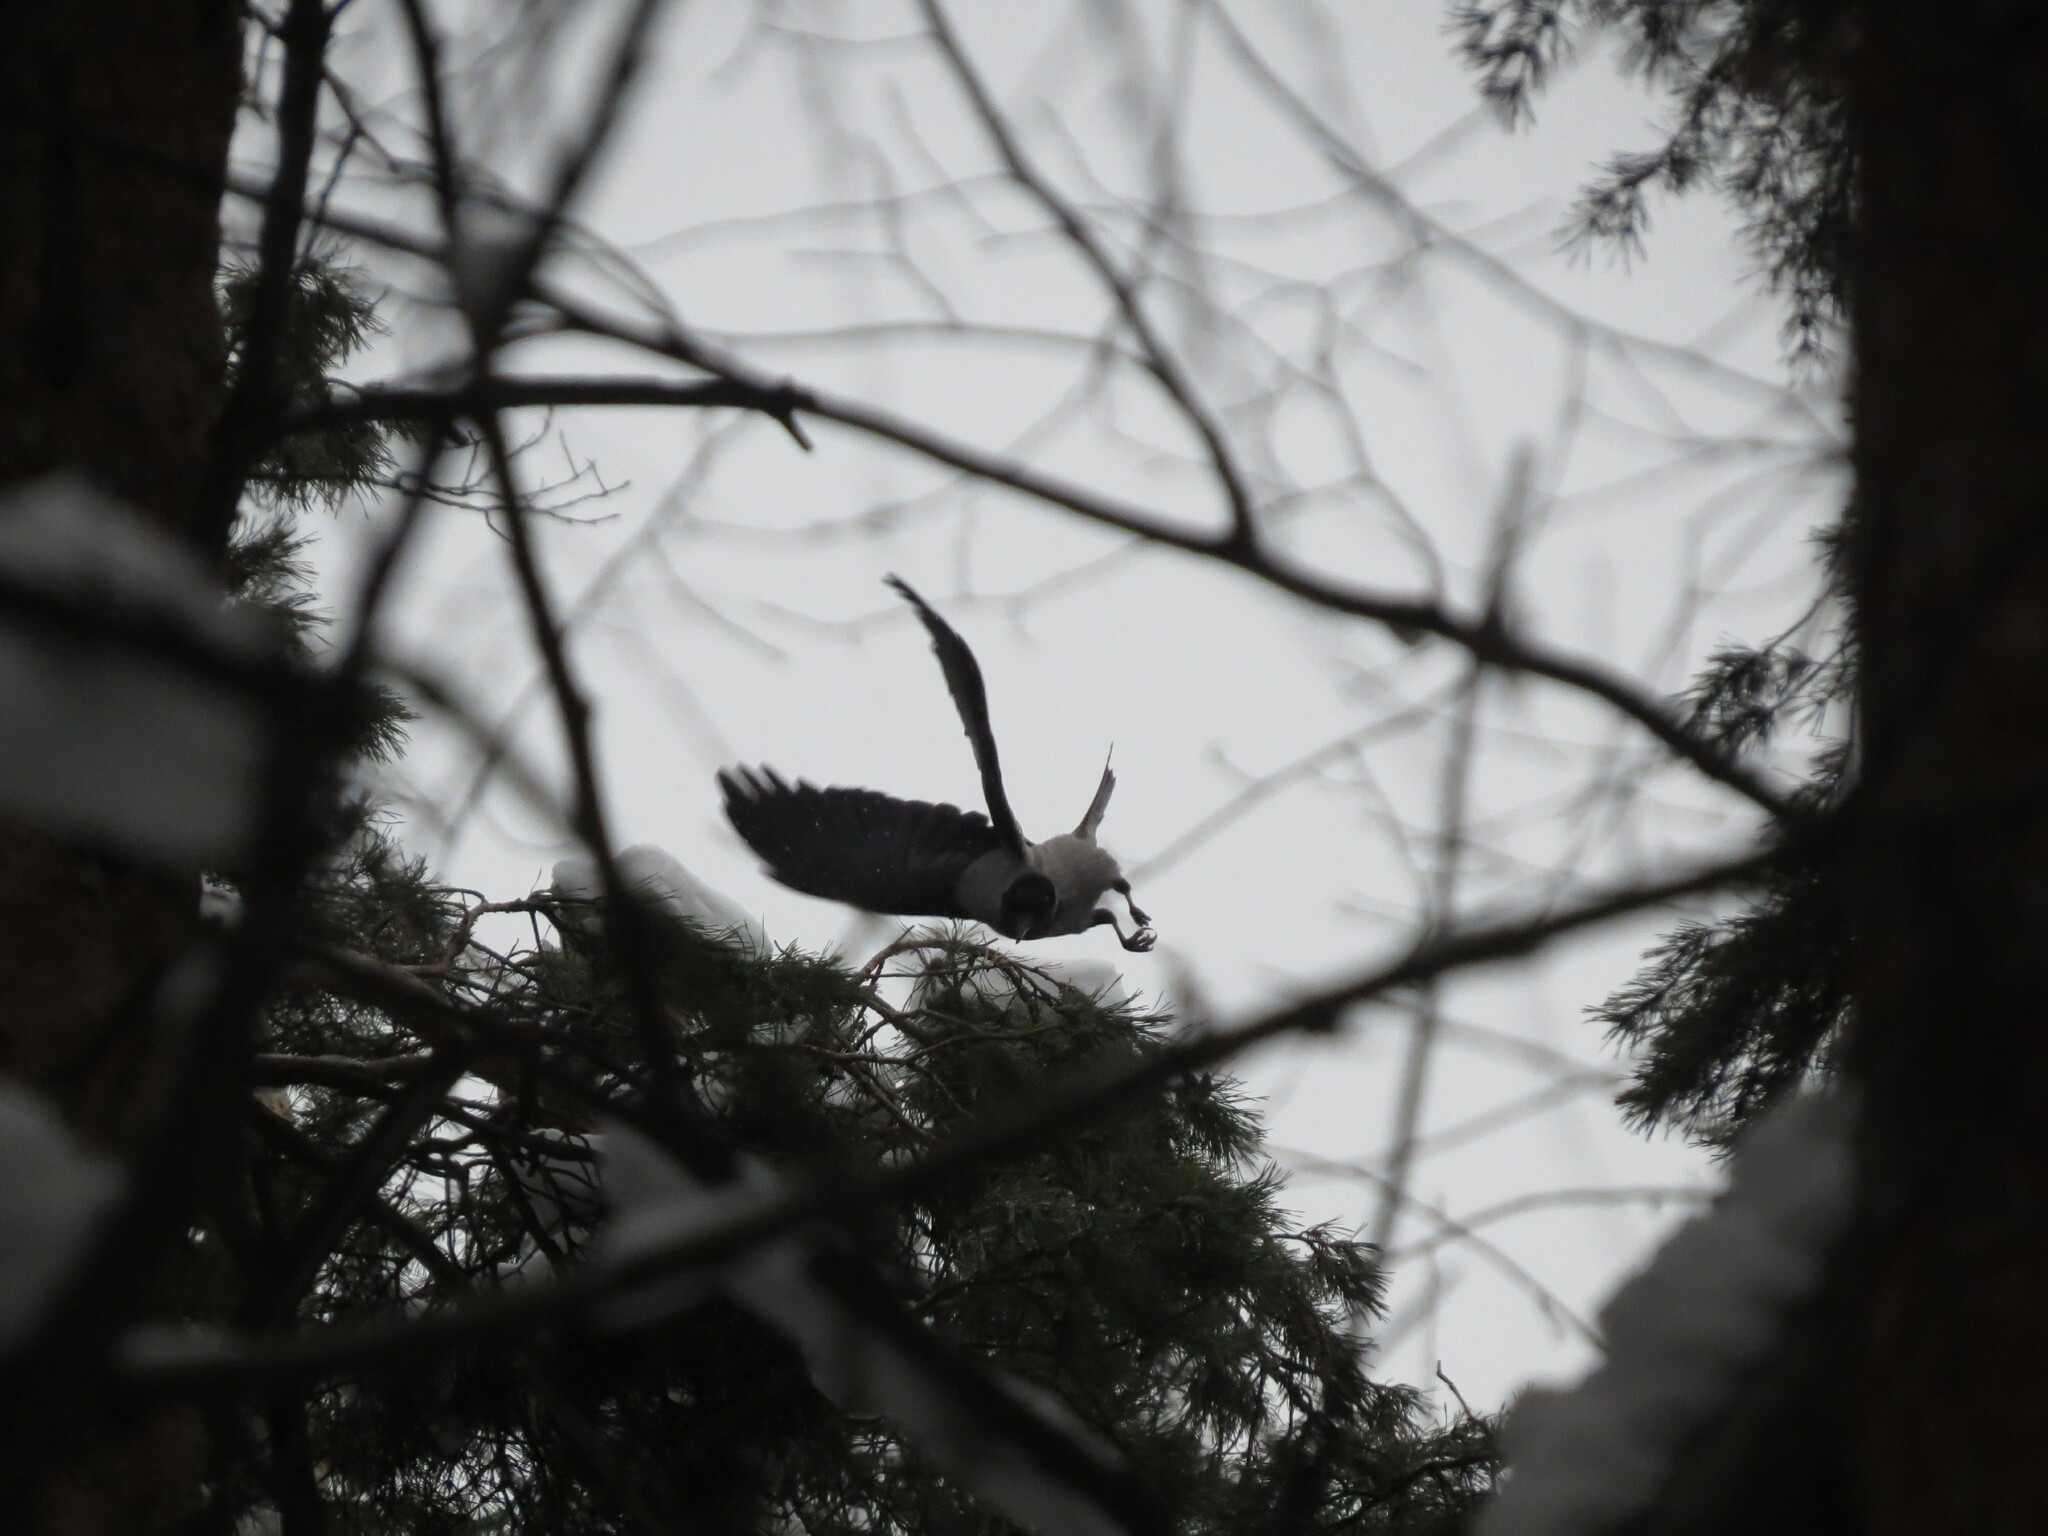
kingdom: Animalia
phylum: Chordata
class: Aves
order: Passeriformes
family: Corvidae
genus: Corvus
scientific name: Corvus cornix
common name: Hooded crow
